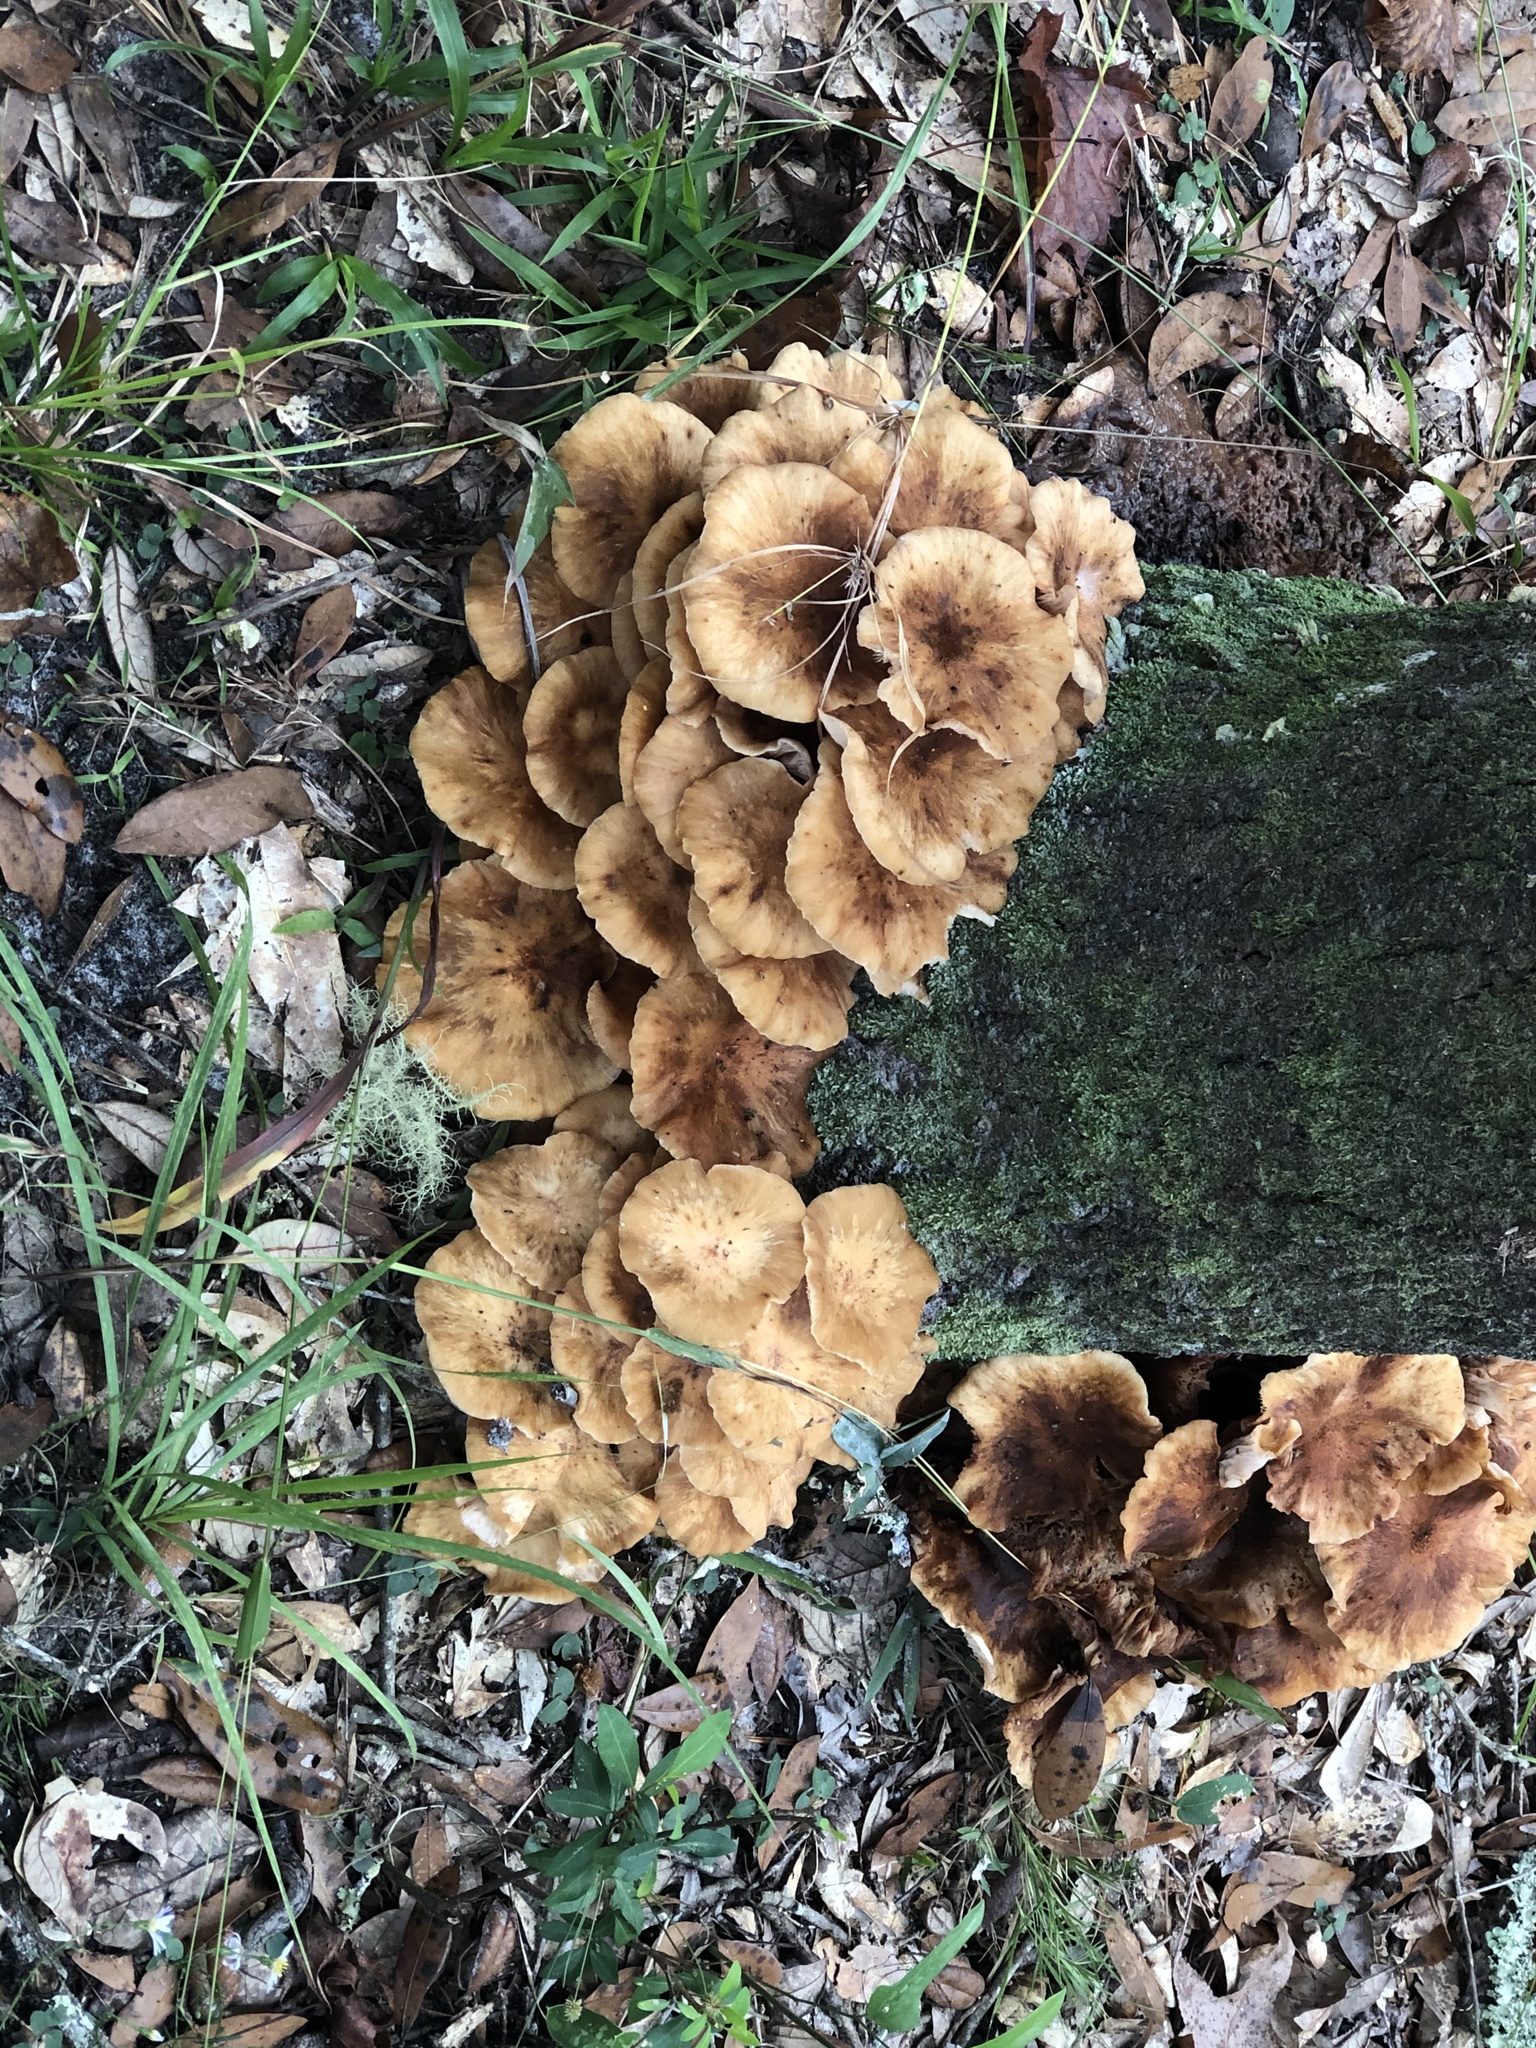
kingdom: Fungi
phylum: Basidiomycota
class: Agaricomycetes
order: Agaricales
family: Physalacriaceae
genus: Armillaria
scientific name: Armillaria mellea
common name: Honey fungus
